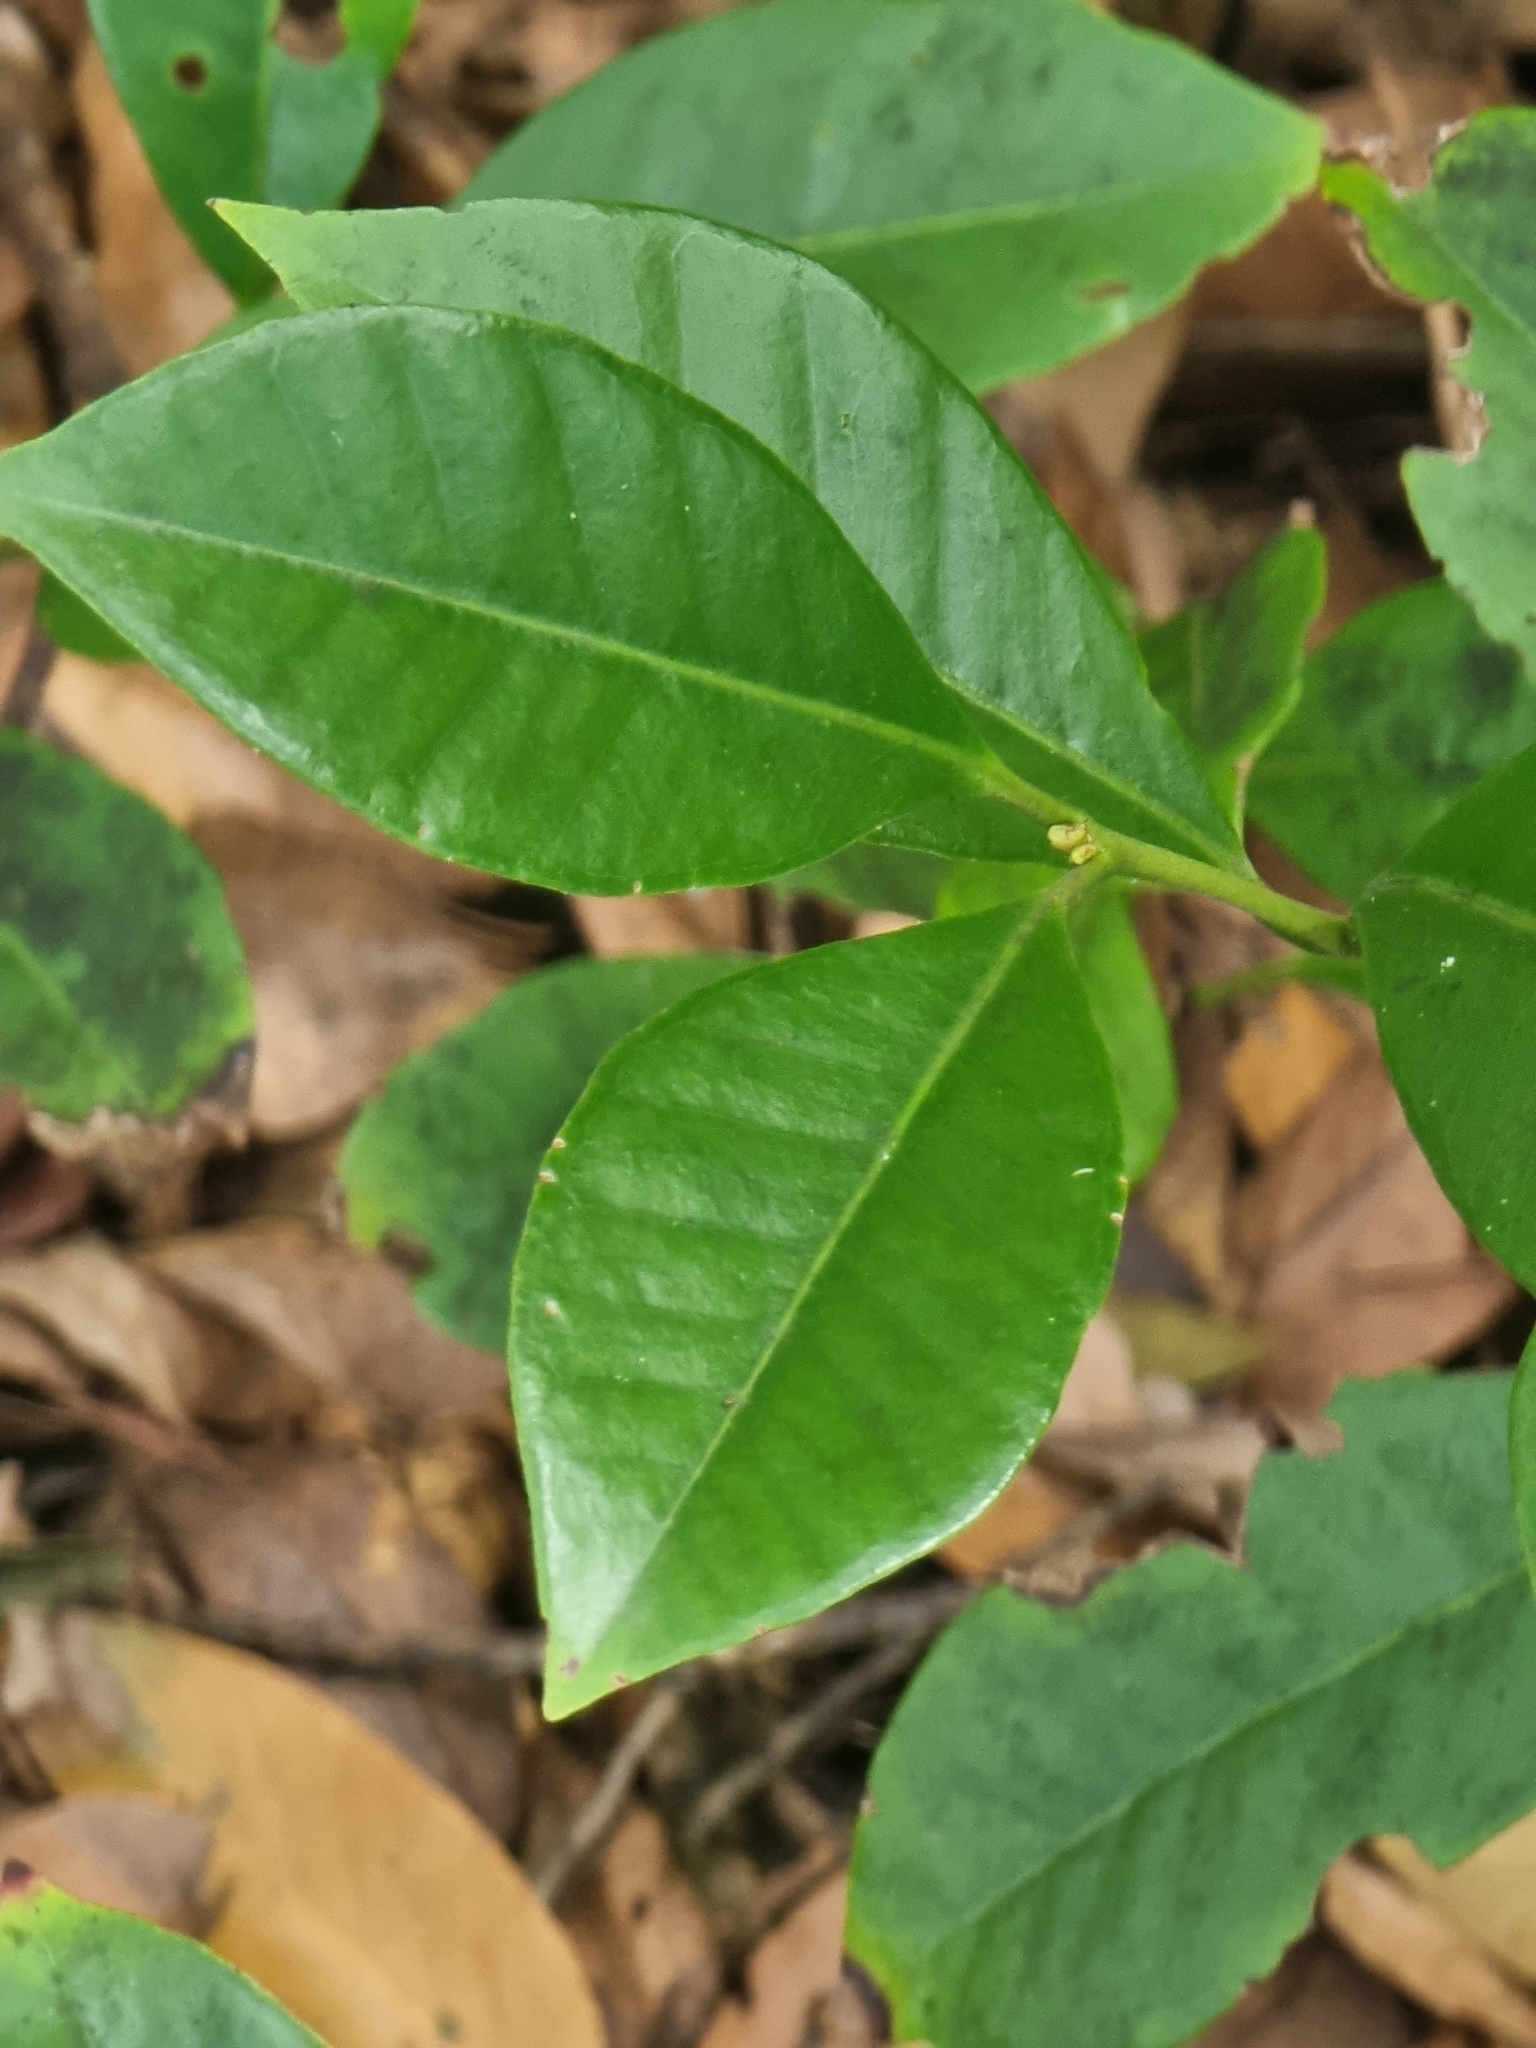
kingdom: Plantae
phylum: Tracheophyta
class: Magnoliopsida
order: Myrtales
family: Myrtaceae
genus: Psidium
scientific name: Psidium cattleianum
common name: Strawberry guava
